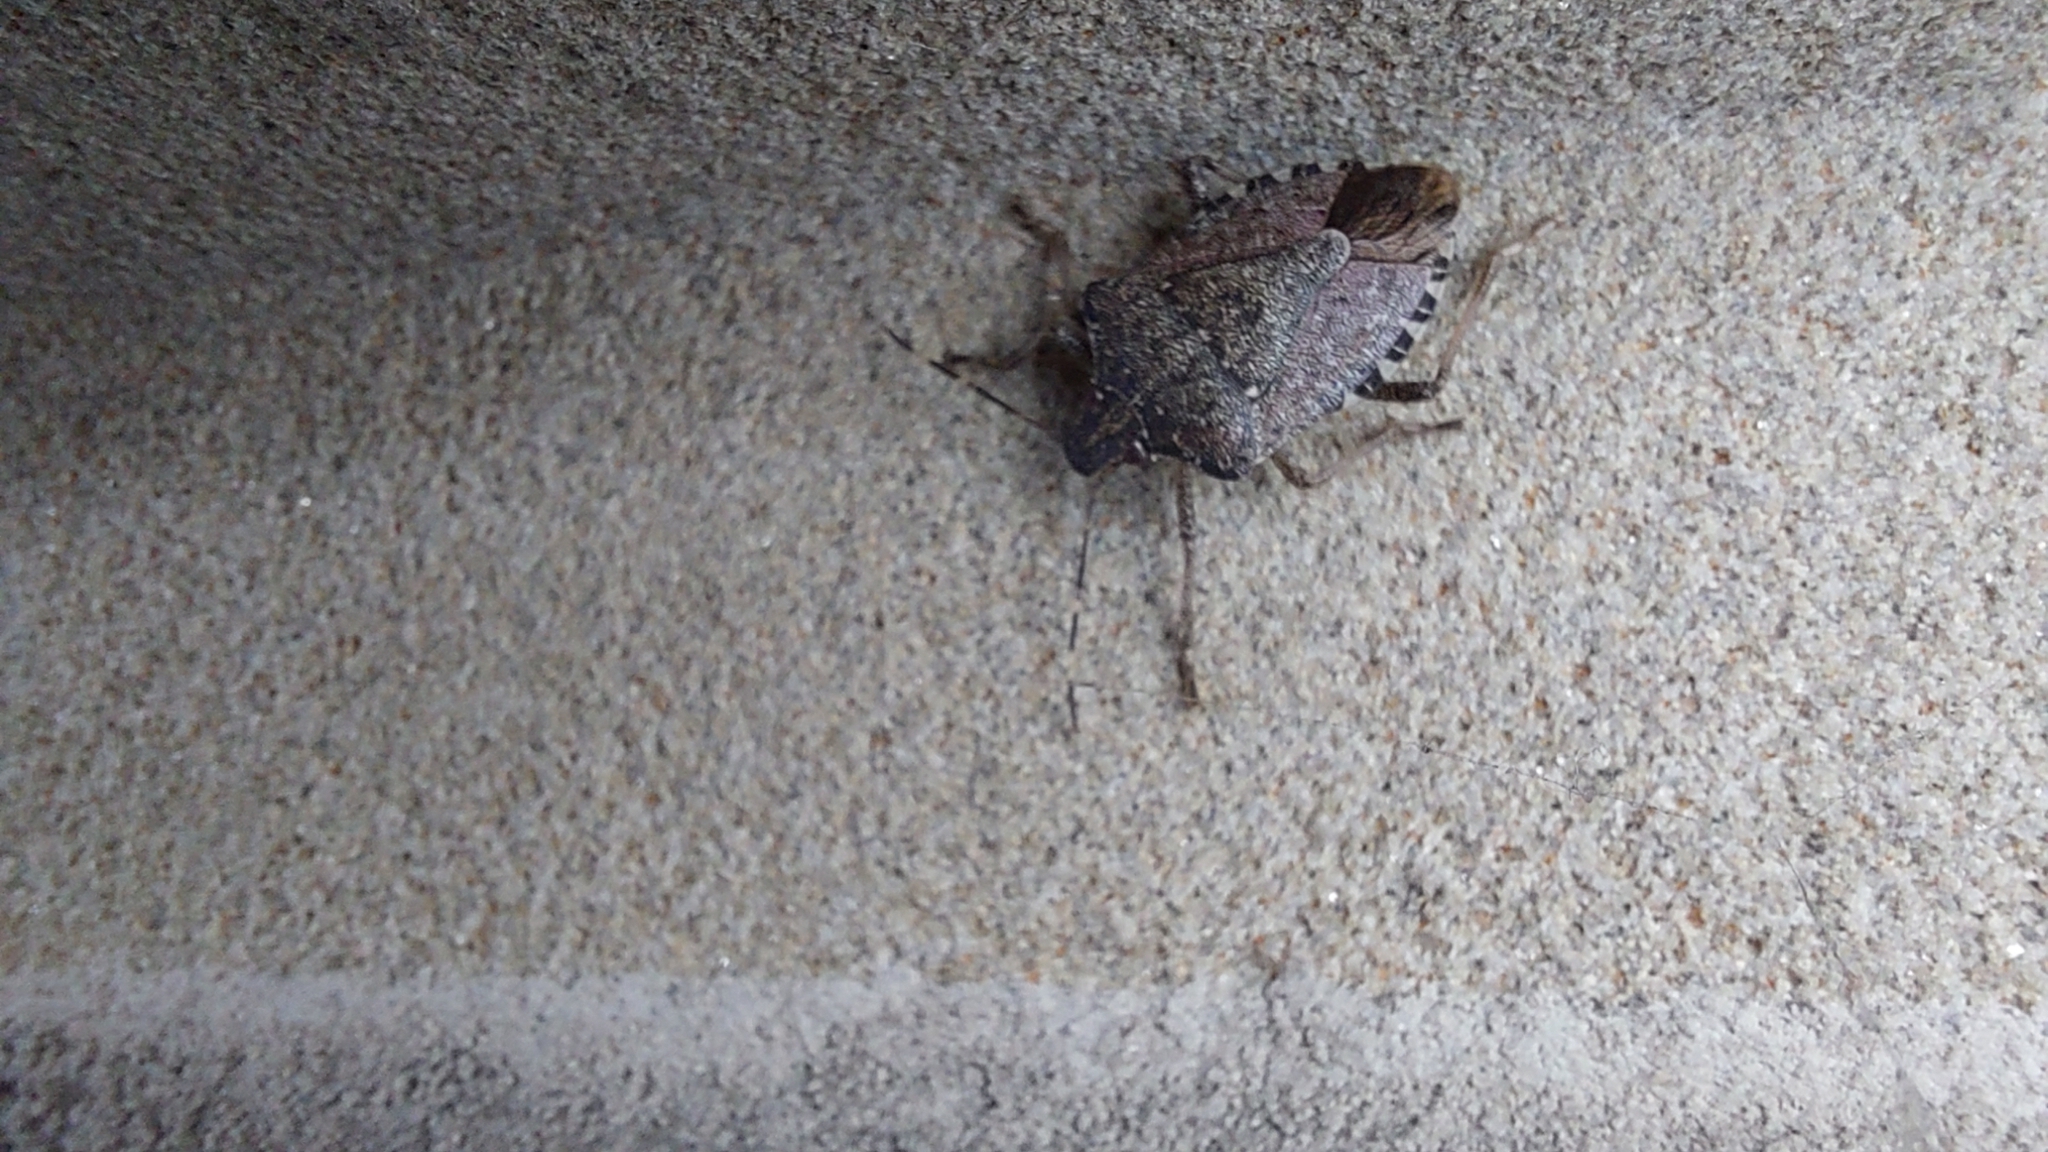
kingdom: Animalia
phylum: Arthropoda
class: Insecta
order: Hemiptera
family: Pentatomidae
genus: Halyomorpha
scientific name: Halyomorpha halys
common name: Brown marmorated stink bug
